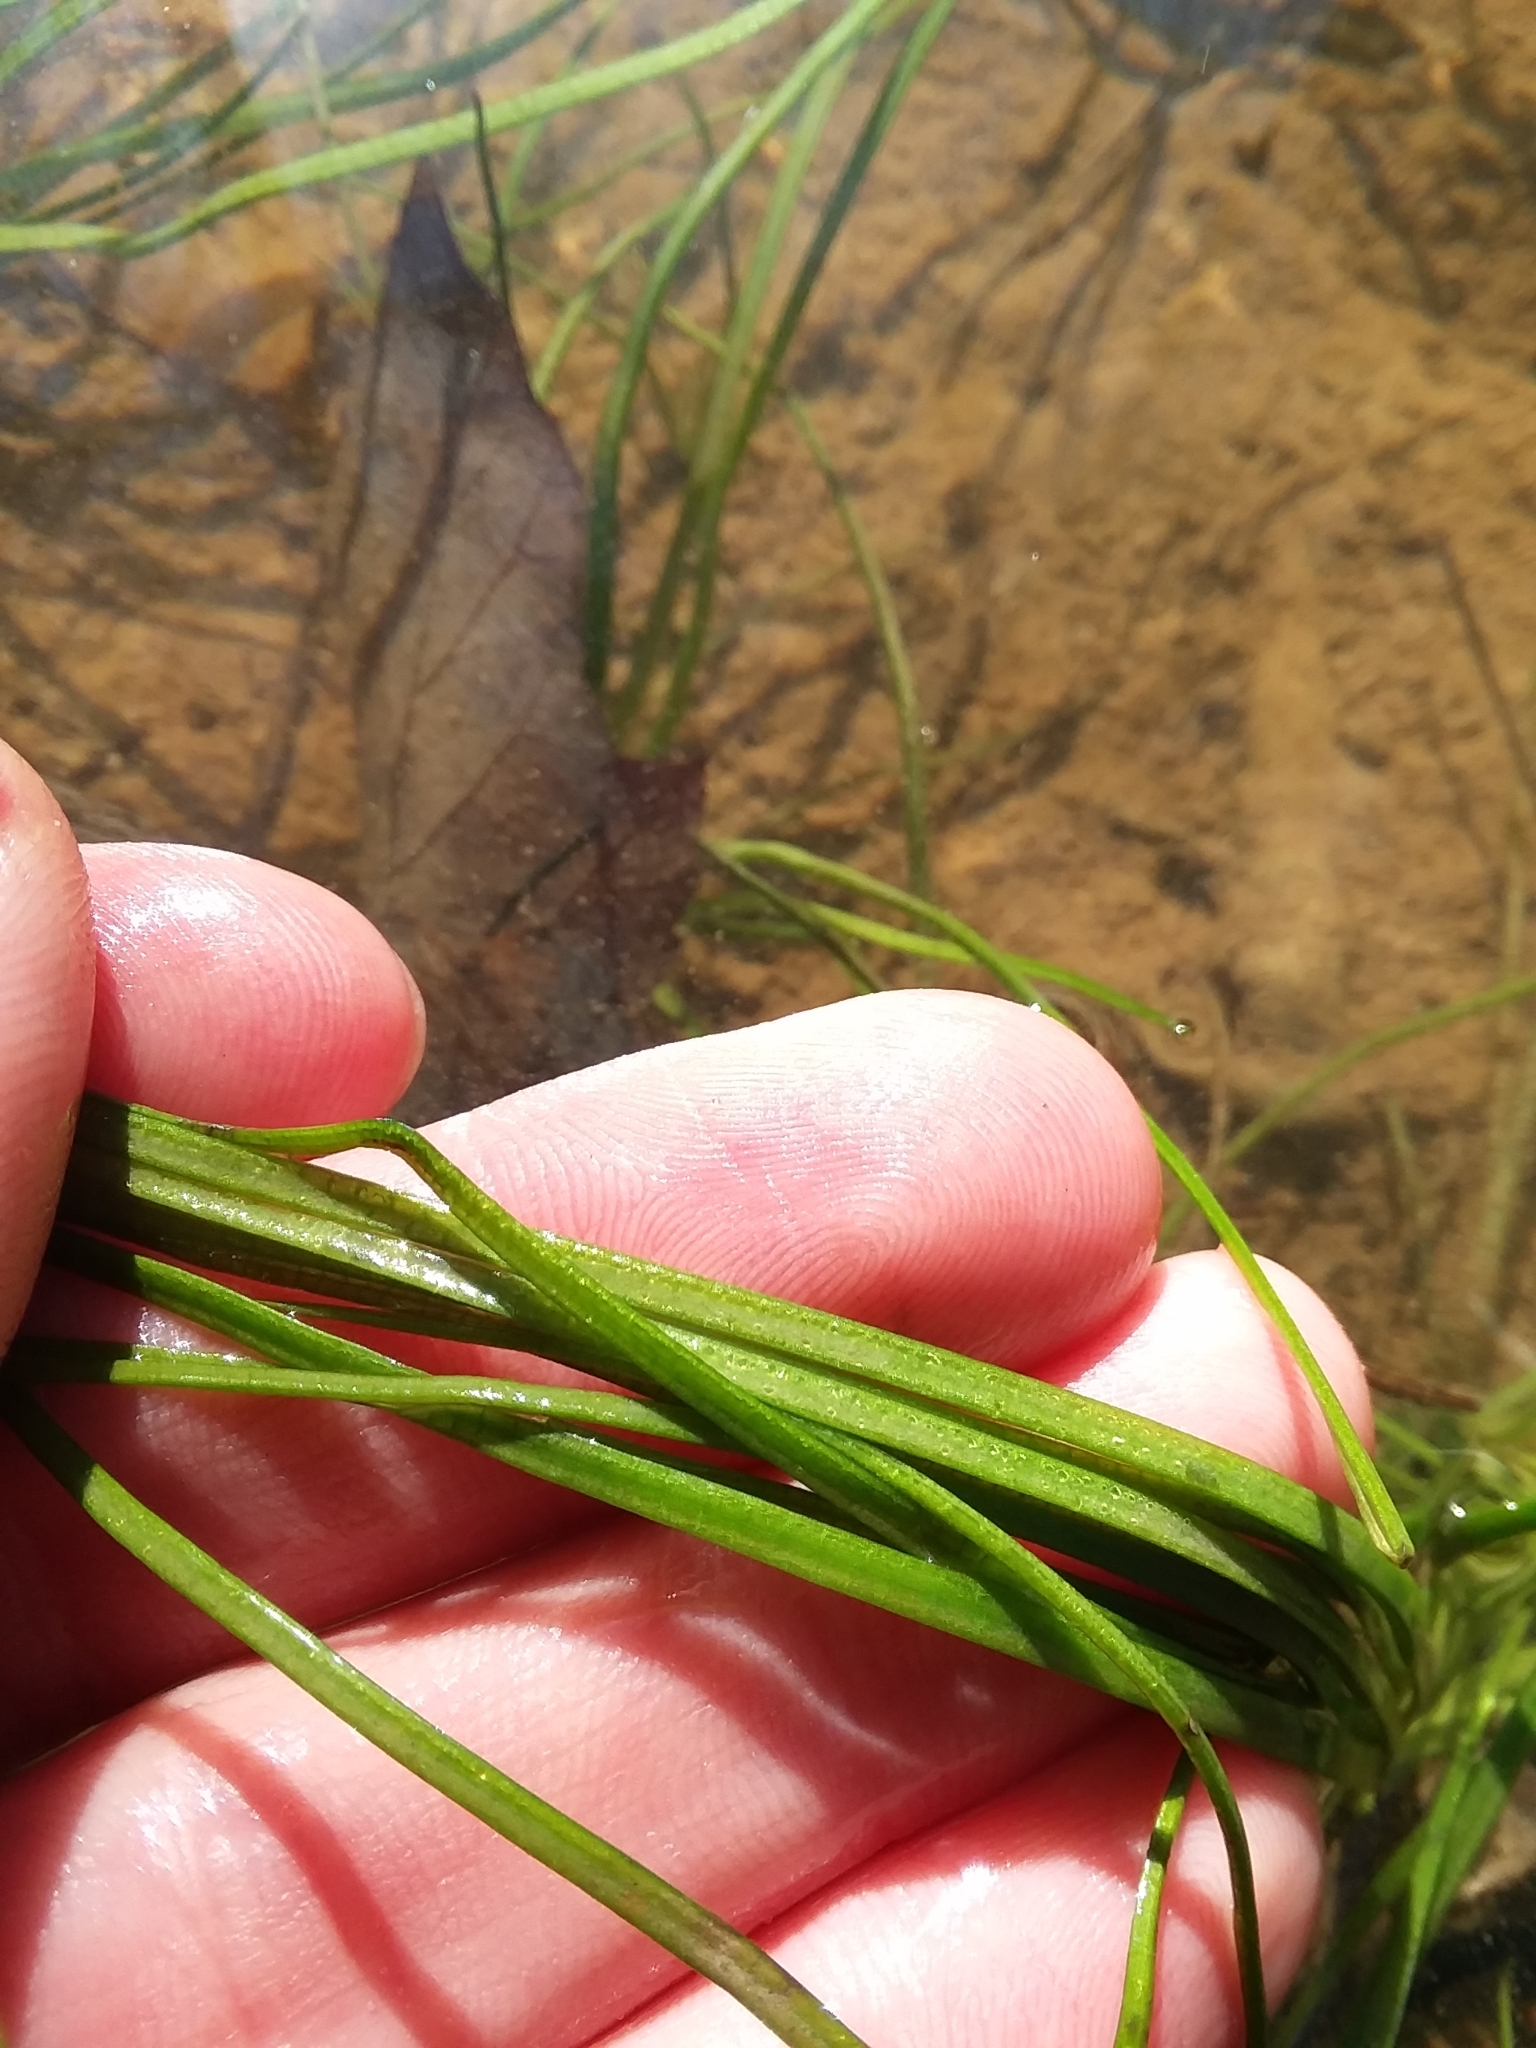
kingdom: Plantae
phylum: Tracheophyta
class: Lycopodiopsida
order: Isoetales
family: Isoetaceae
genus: Isoetes
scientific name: Isoetes louisianensis
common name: Lousiana quillwort
